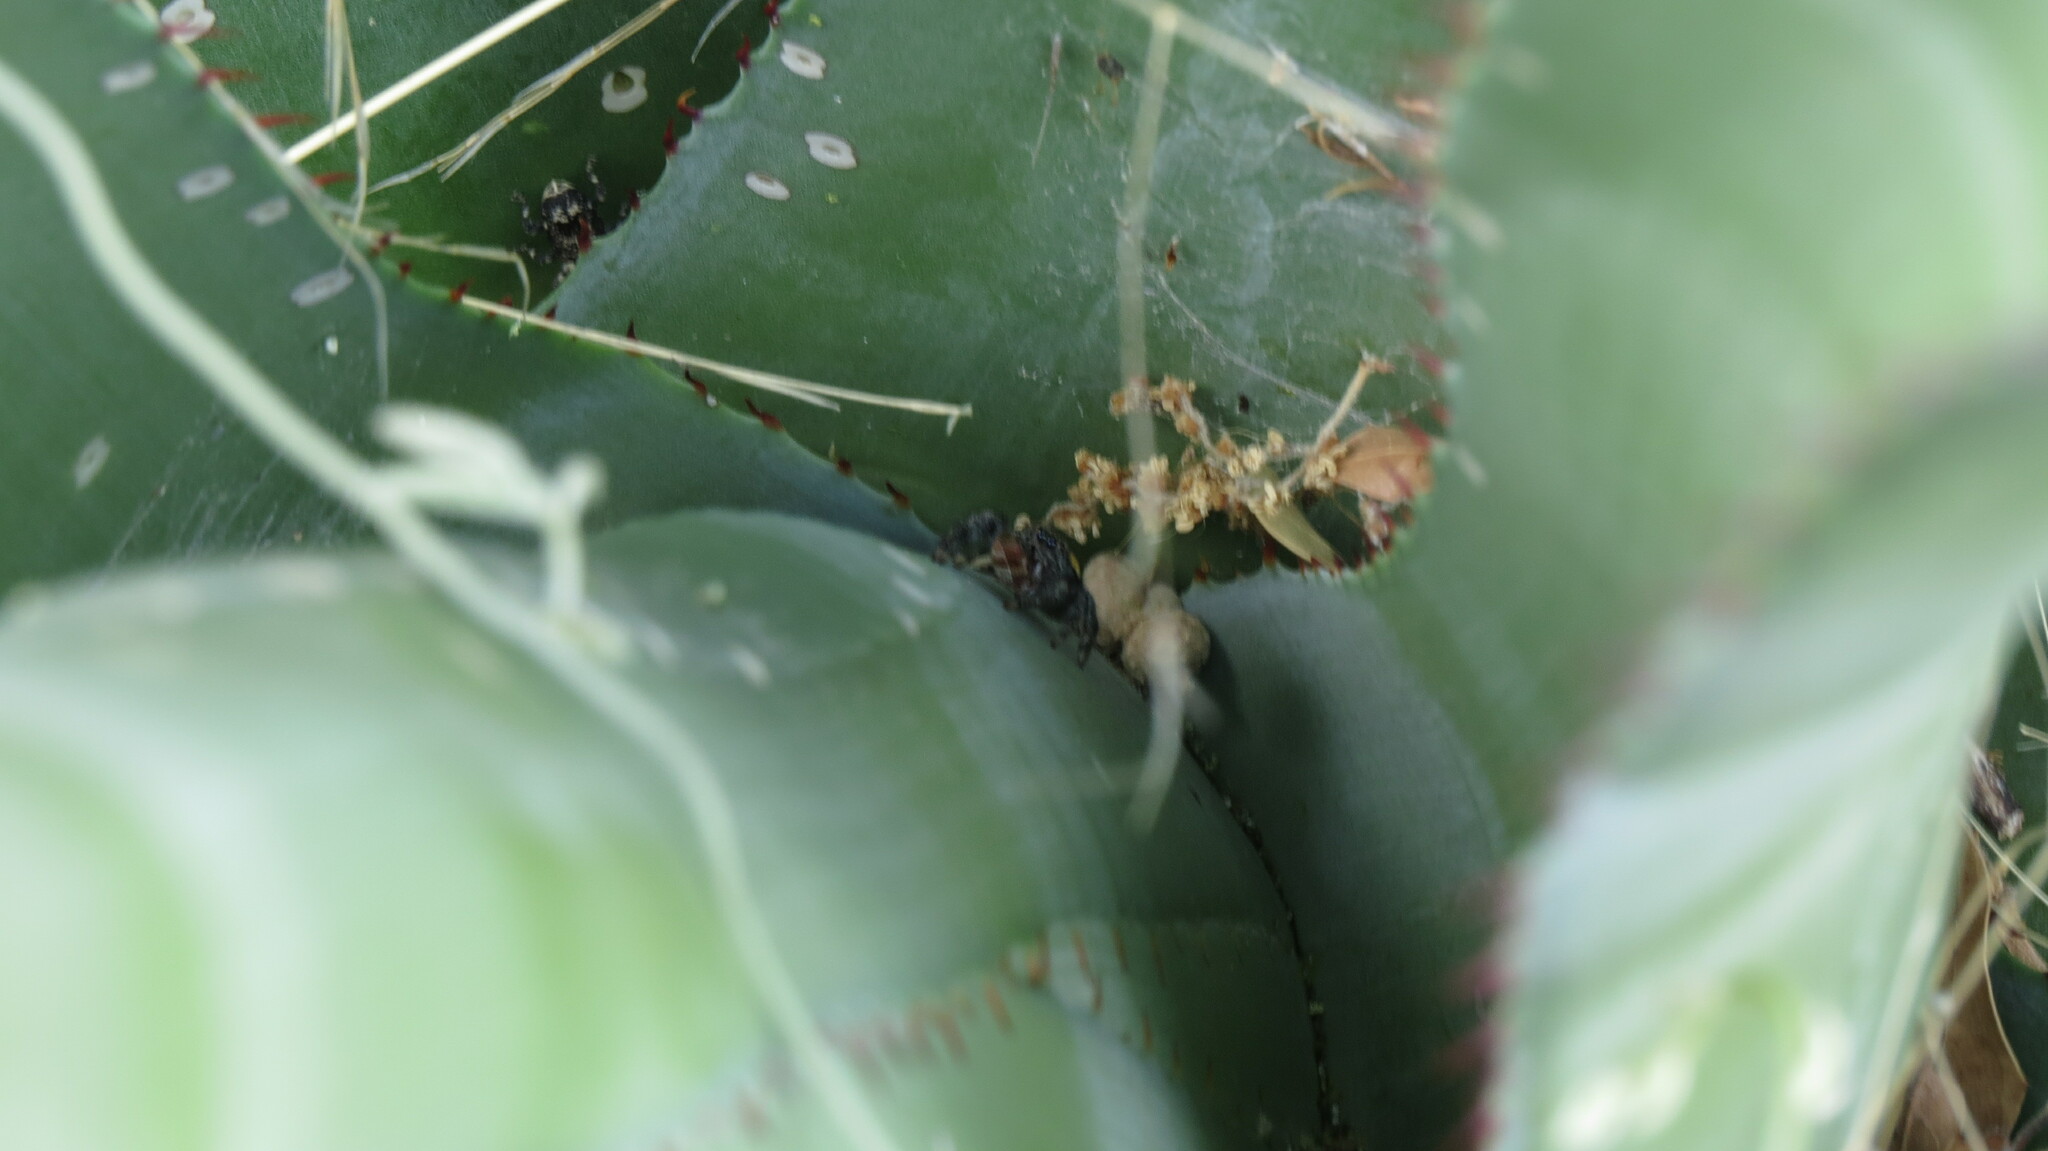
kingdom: Animalia
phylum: Arthropoda
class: Arachnida
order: Araneae
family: Salticidae
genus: Paraphidippus
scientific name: Paraphidippus basalis
